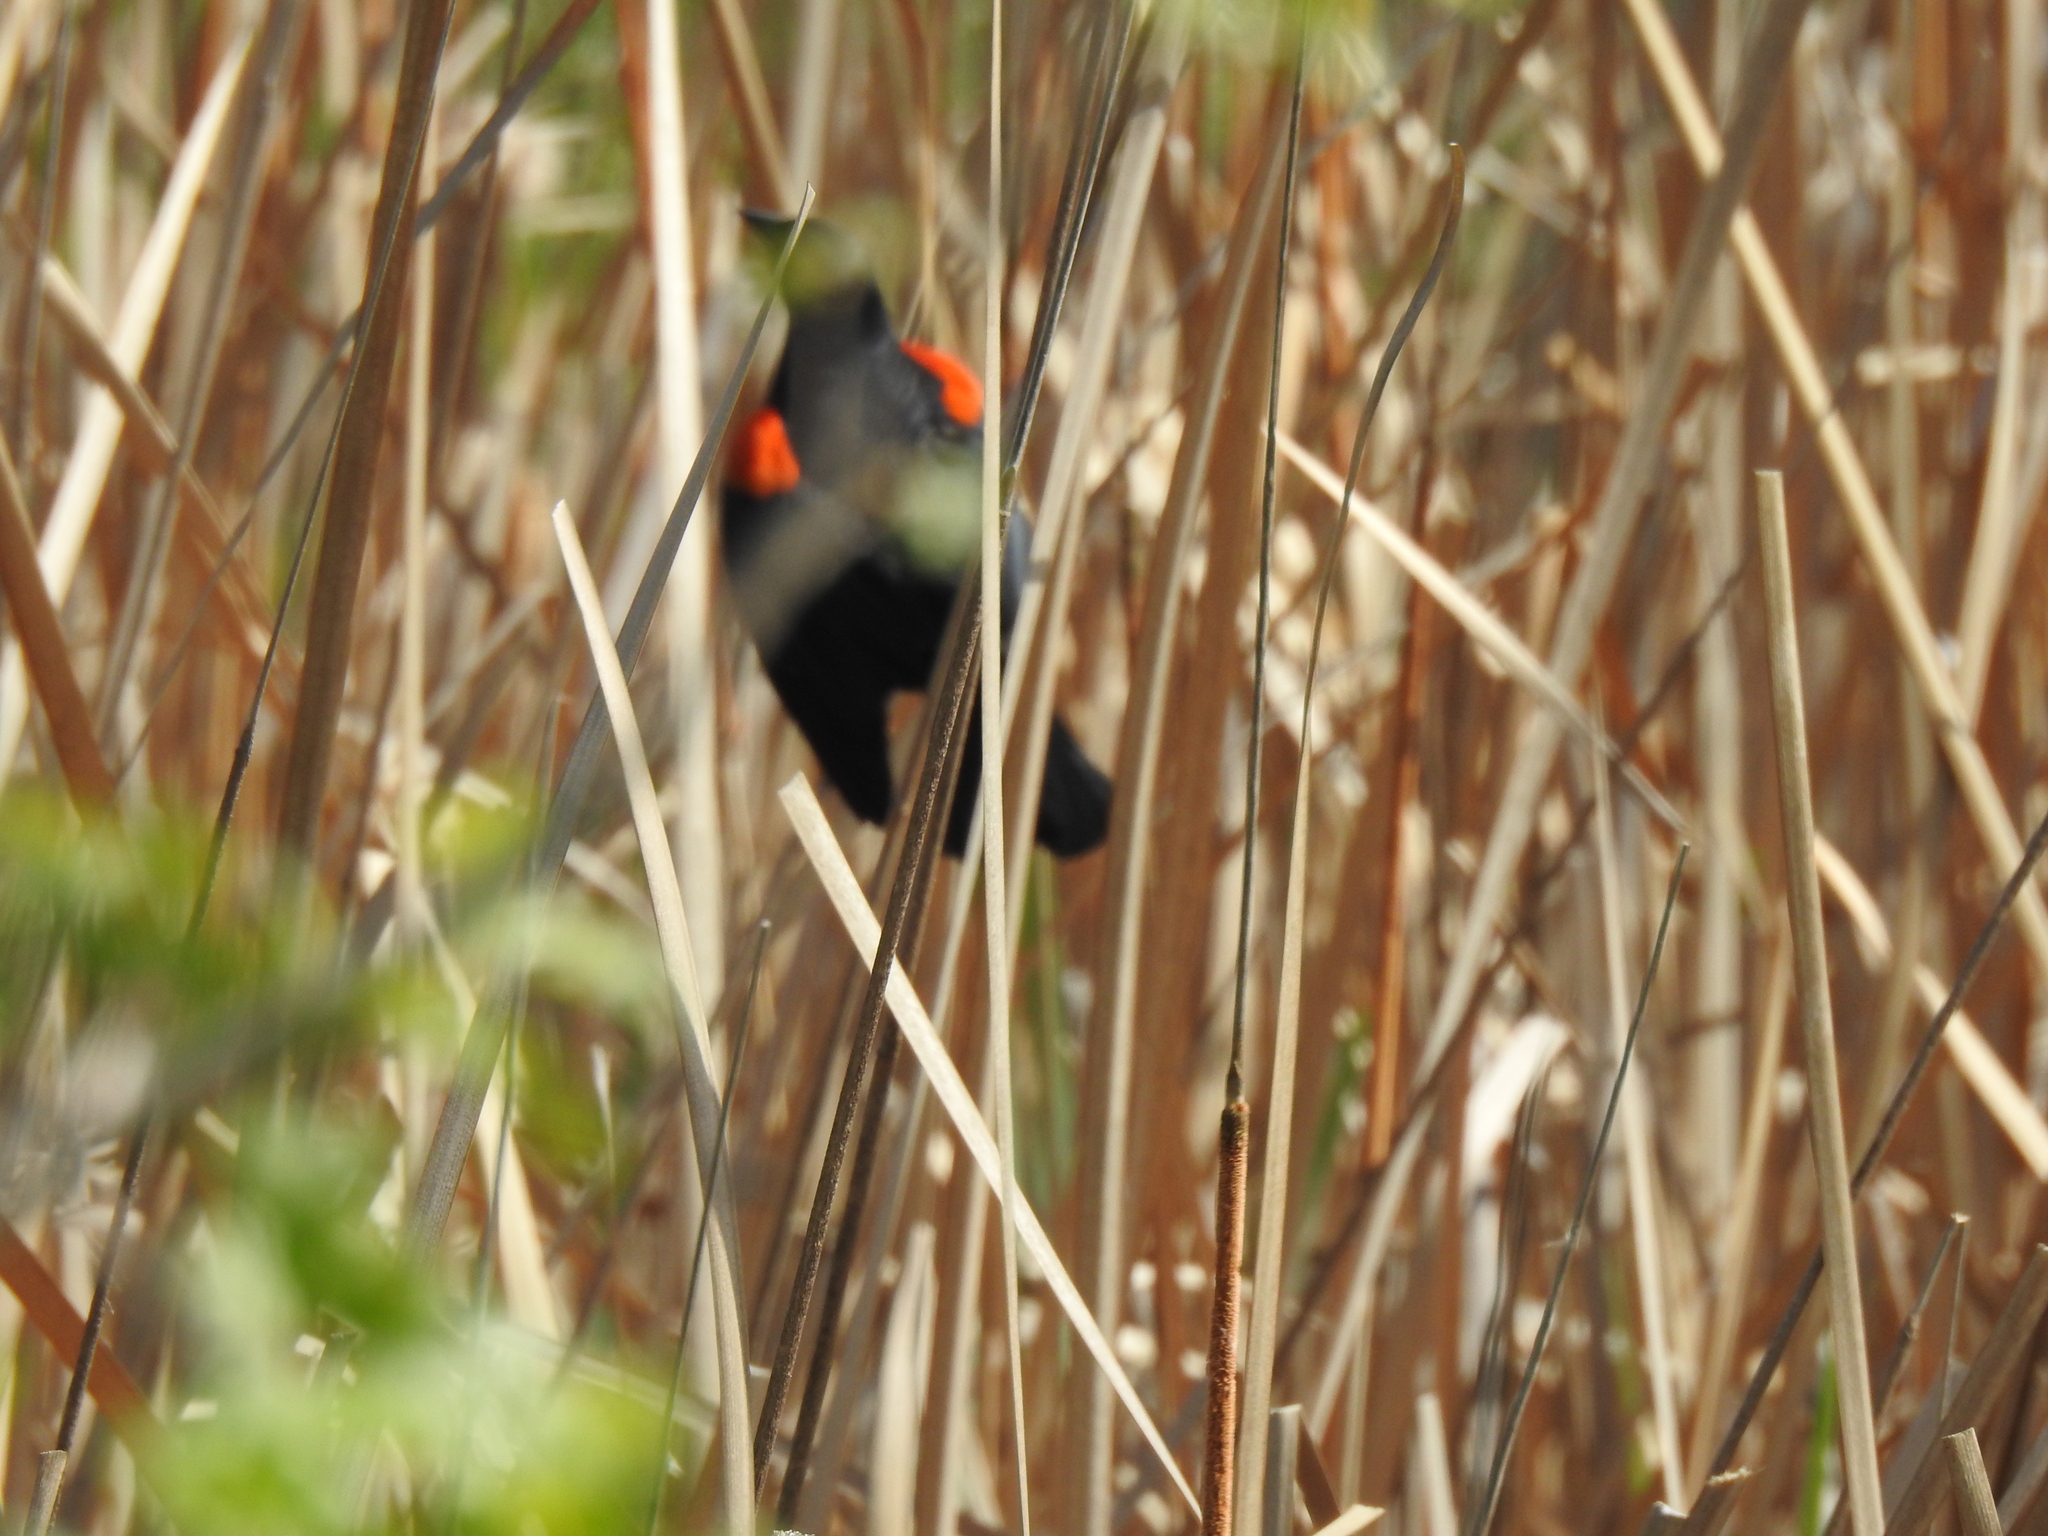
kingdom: Animalia
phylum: Chordata
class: Aves
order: Passeriformes
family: Icteridae
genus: Agelaius
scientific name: Agelaius phoeniceus
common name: Red-winged blackbird
